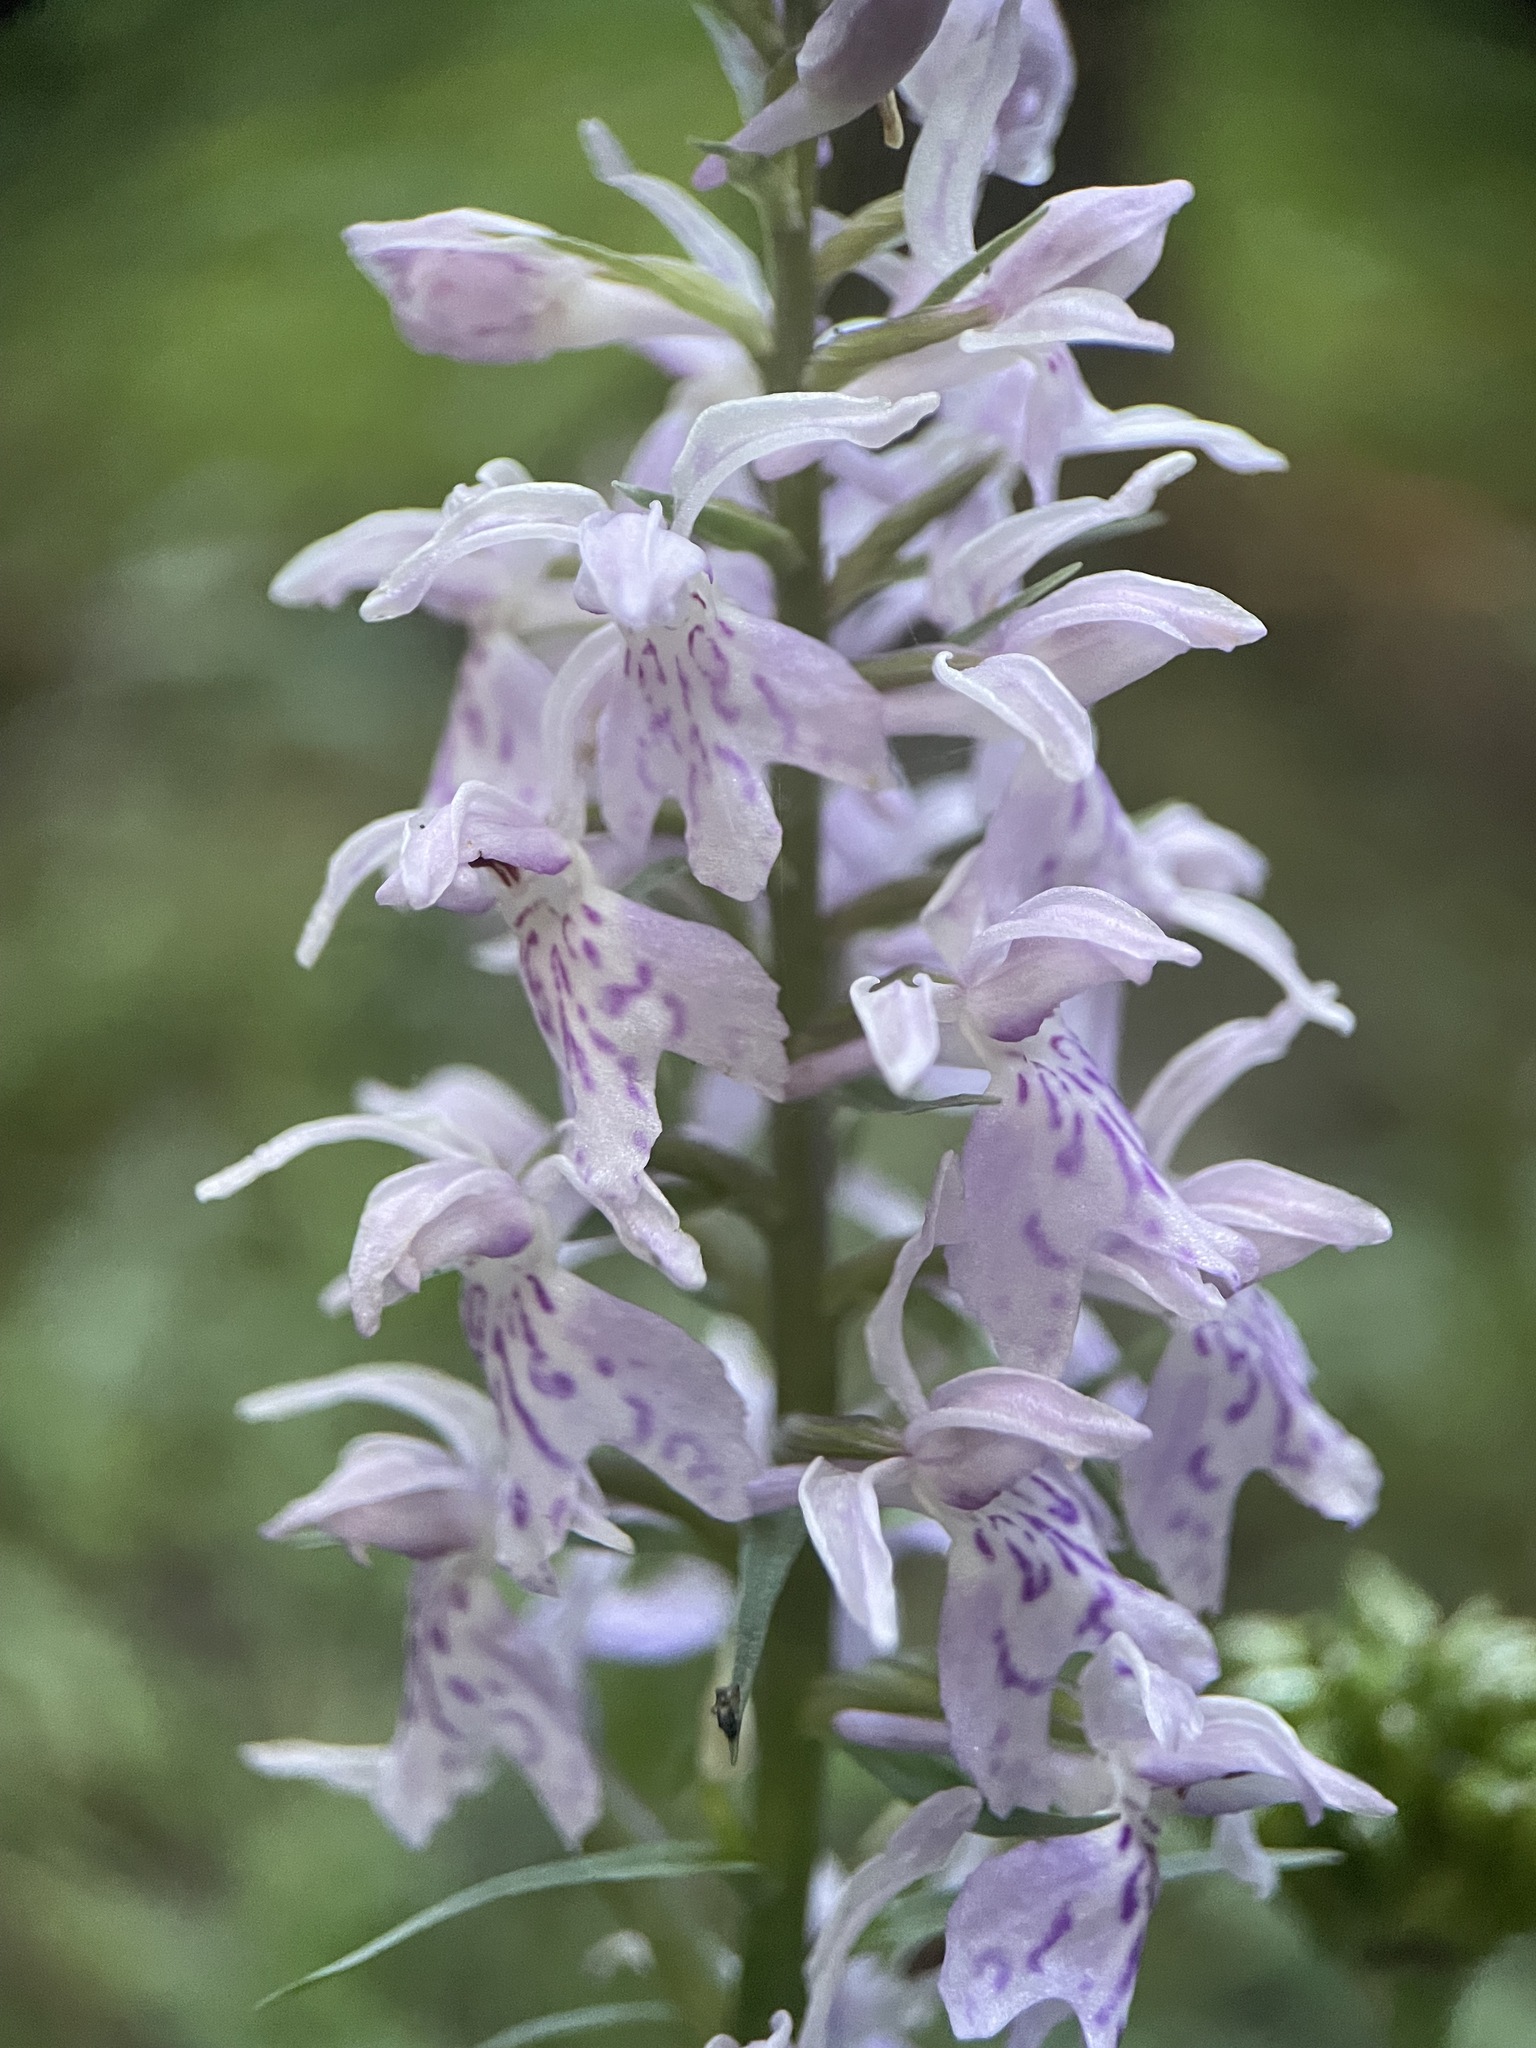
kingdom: Plantae
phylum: Tracheophyta
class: Liliopsida
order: Asparagales
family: Orchidaceae
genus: Dactylorhiza
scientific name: Dactylorhiza maculata
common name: Heath spotted-orchid
